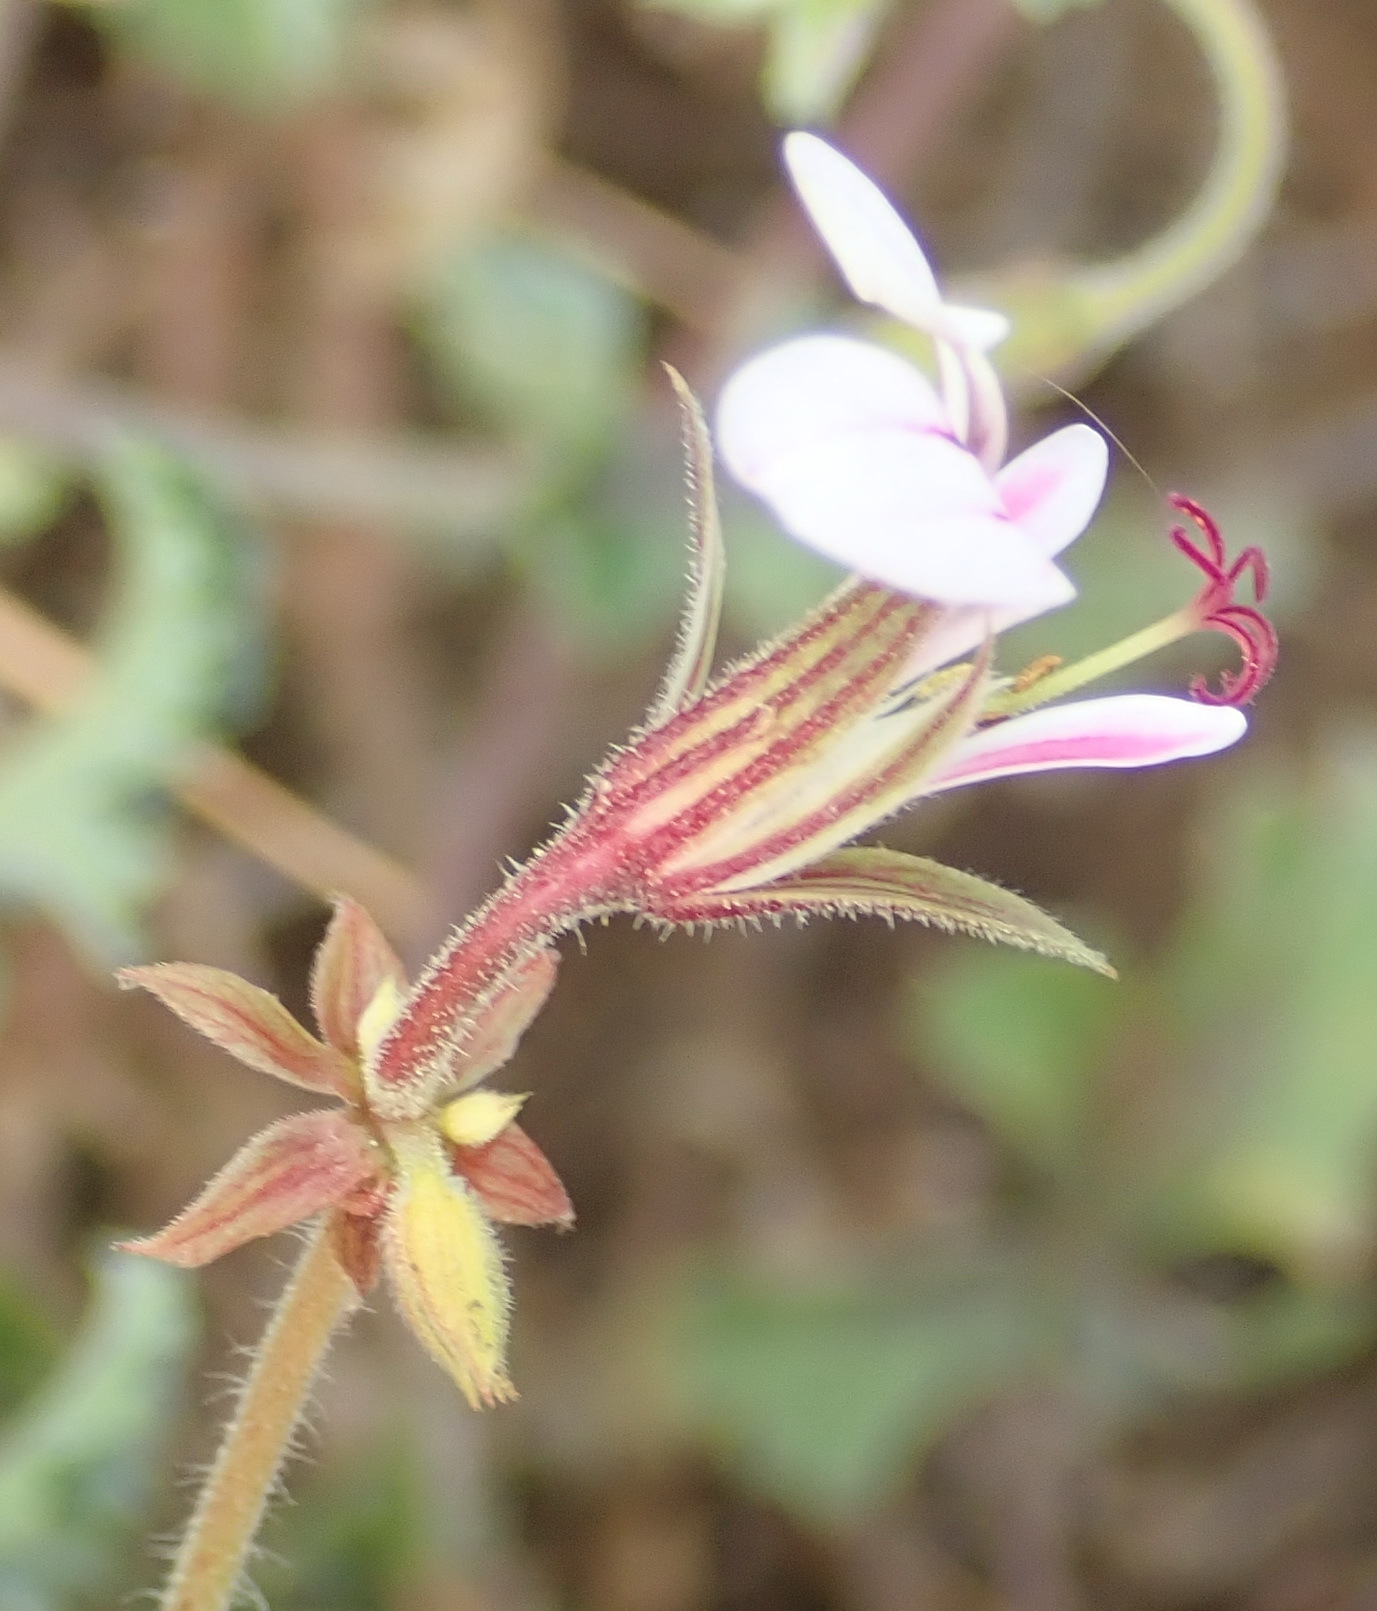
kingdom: Plantae
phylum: Tracheophyta
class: Magnoliopsida
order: Geraniales
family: Geraniaceae
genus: Pelargonium
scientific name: Pelargonium candicans
